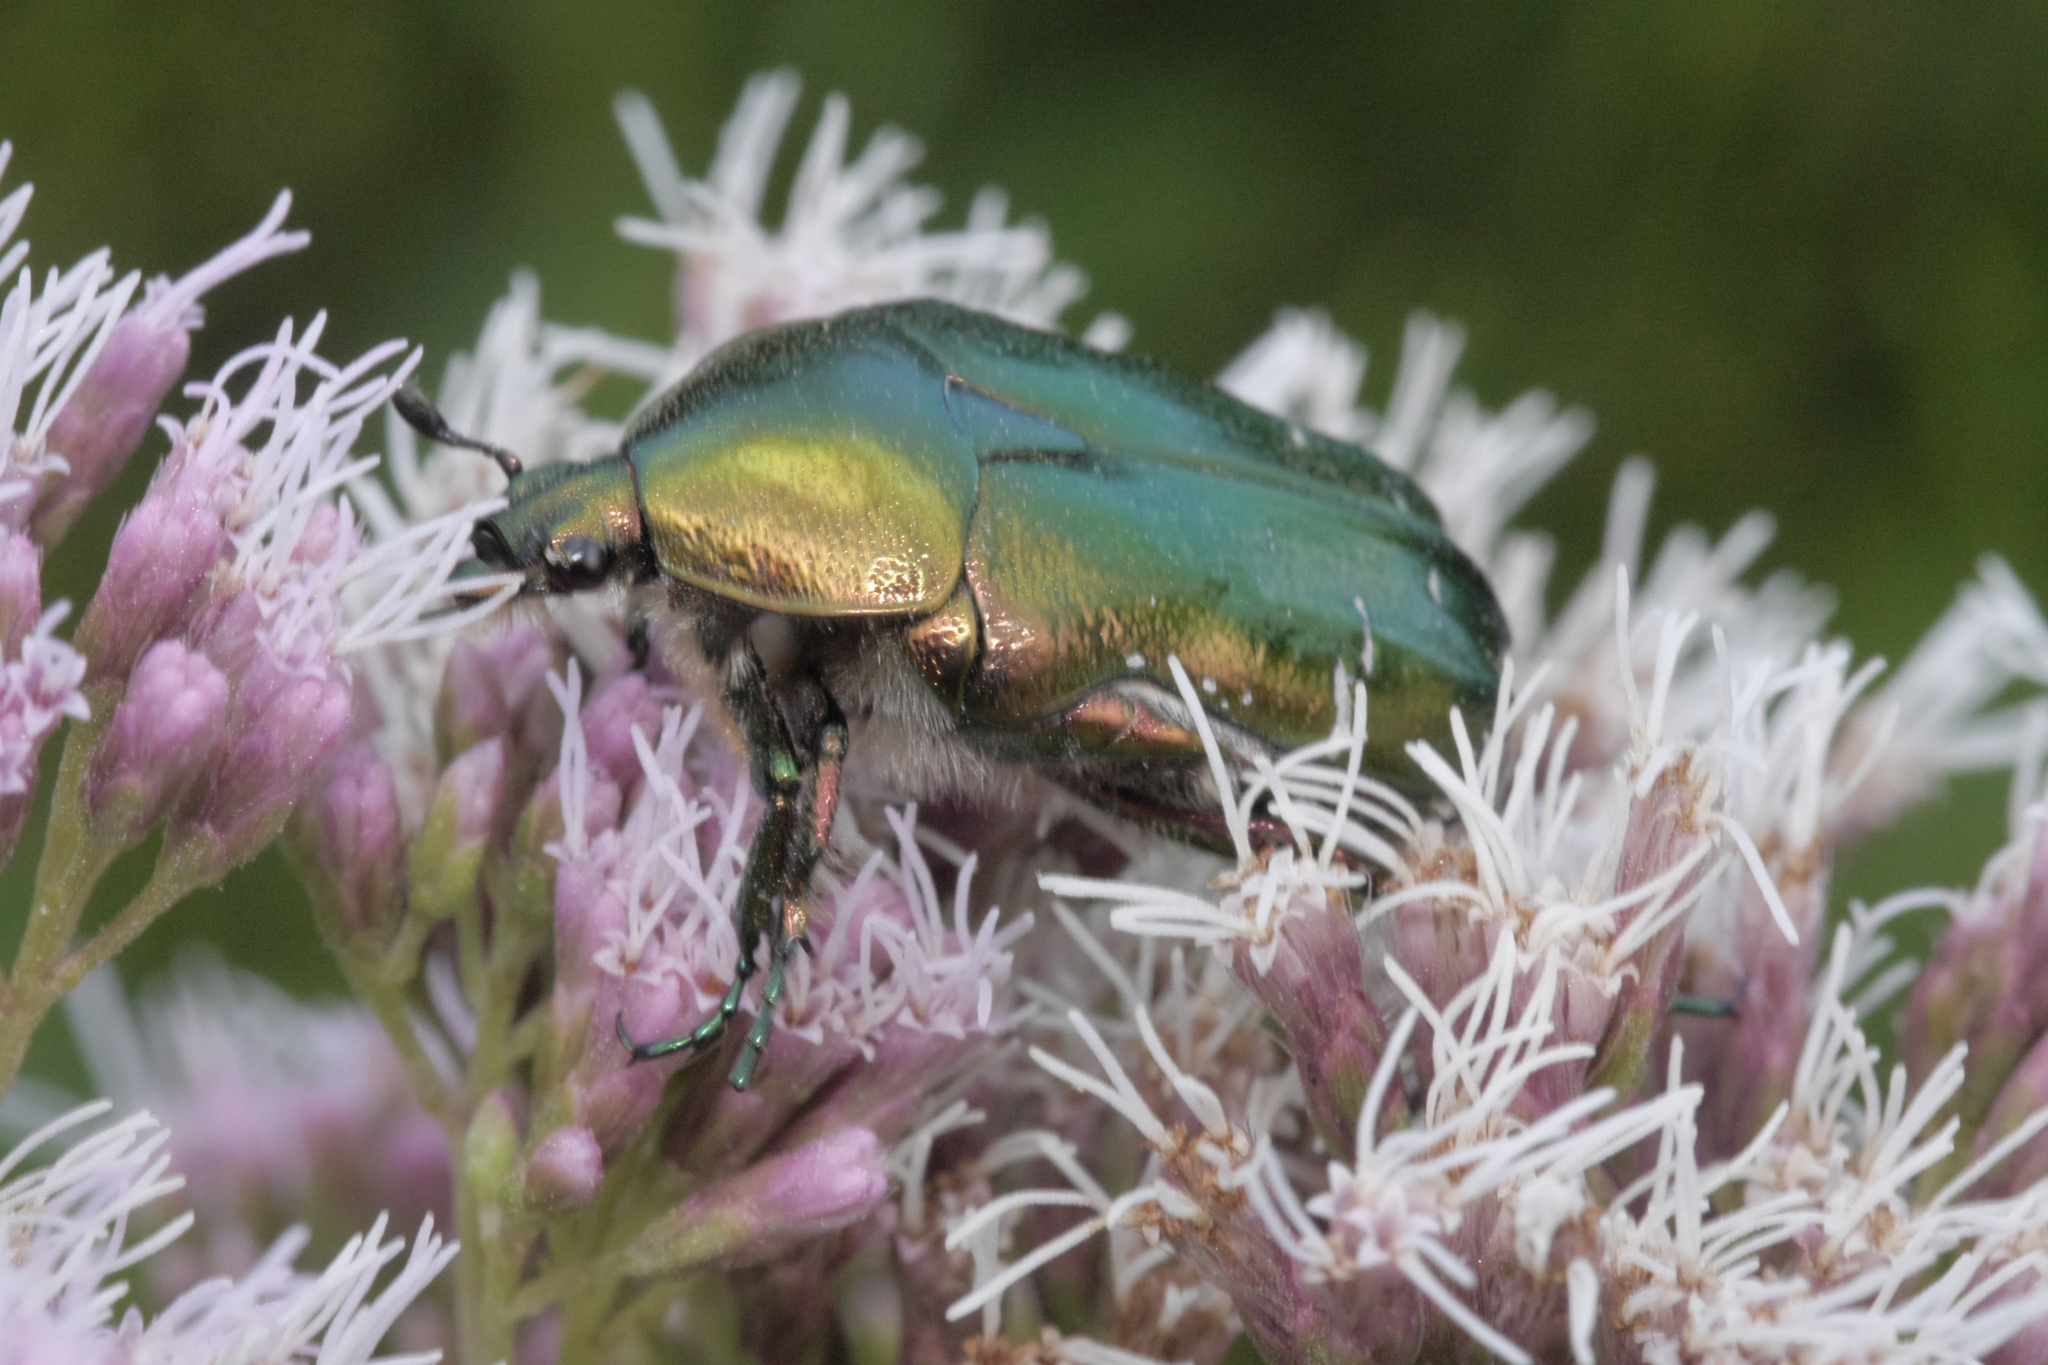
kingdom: Animalia
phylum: Arthropoda
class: Insecta
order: Coleoptera
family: Scarabaeidae
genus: Cetonia
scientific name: Cetonia aurata
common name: Rose chafer
